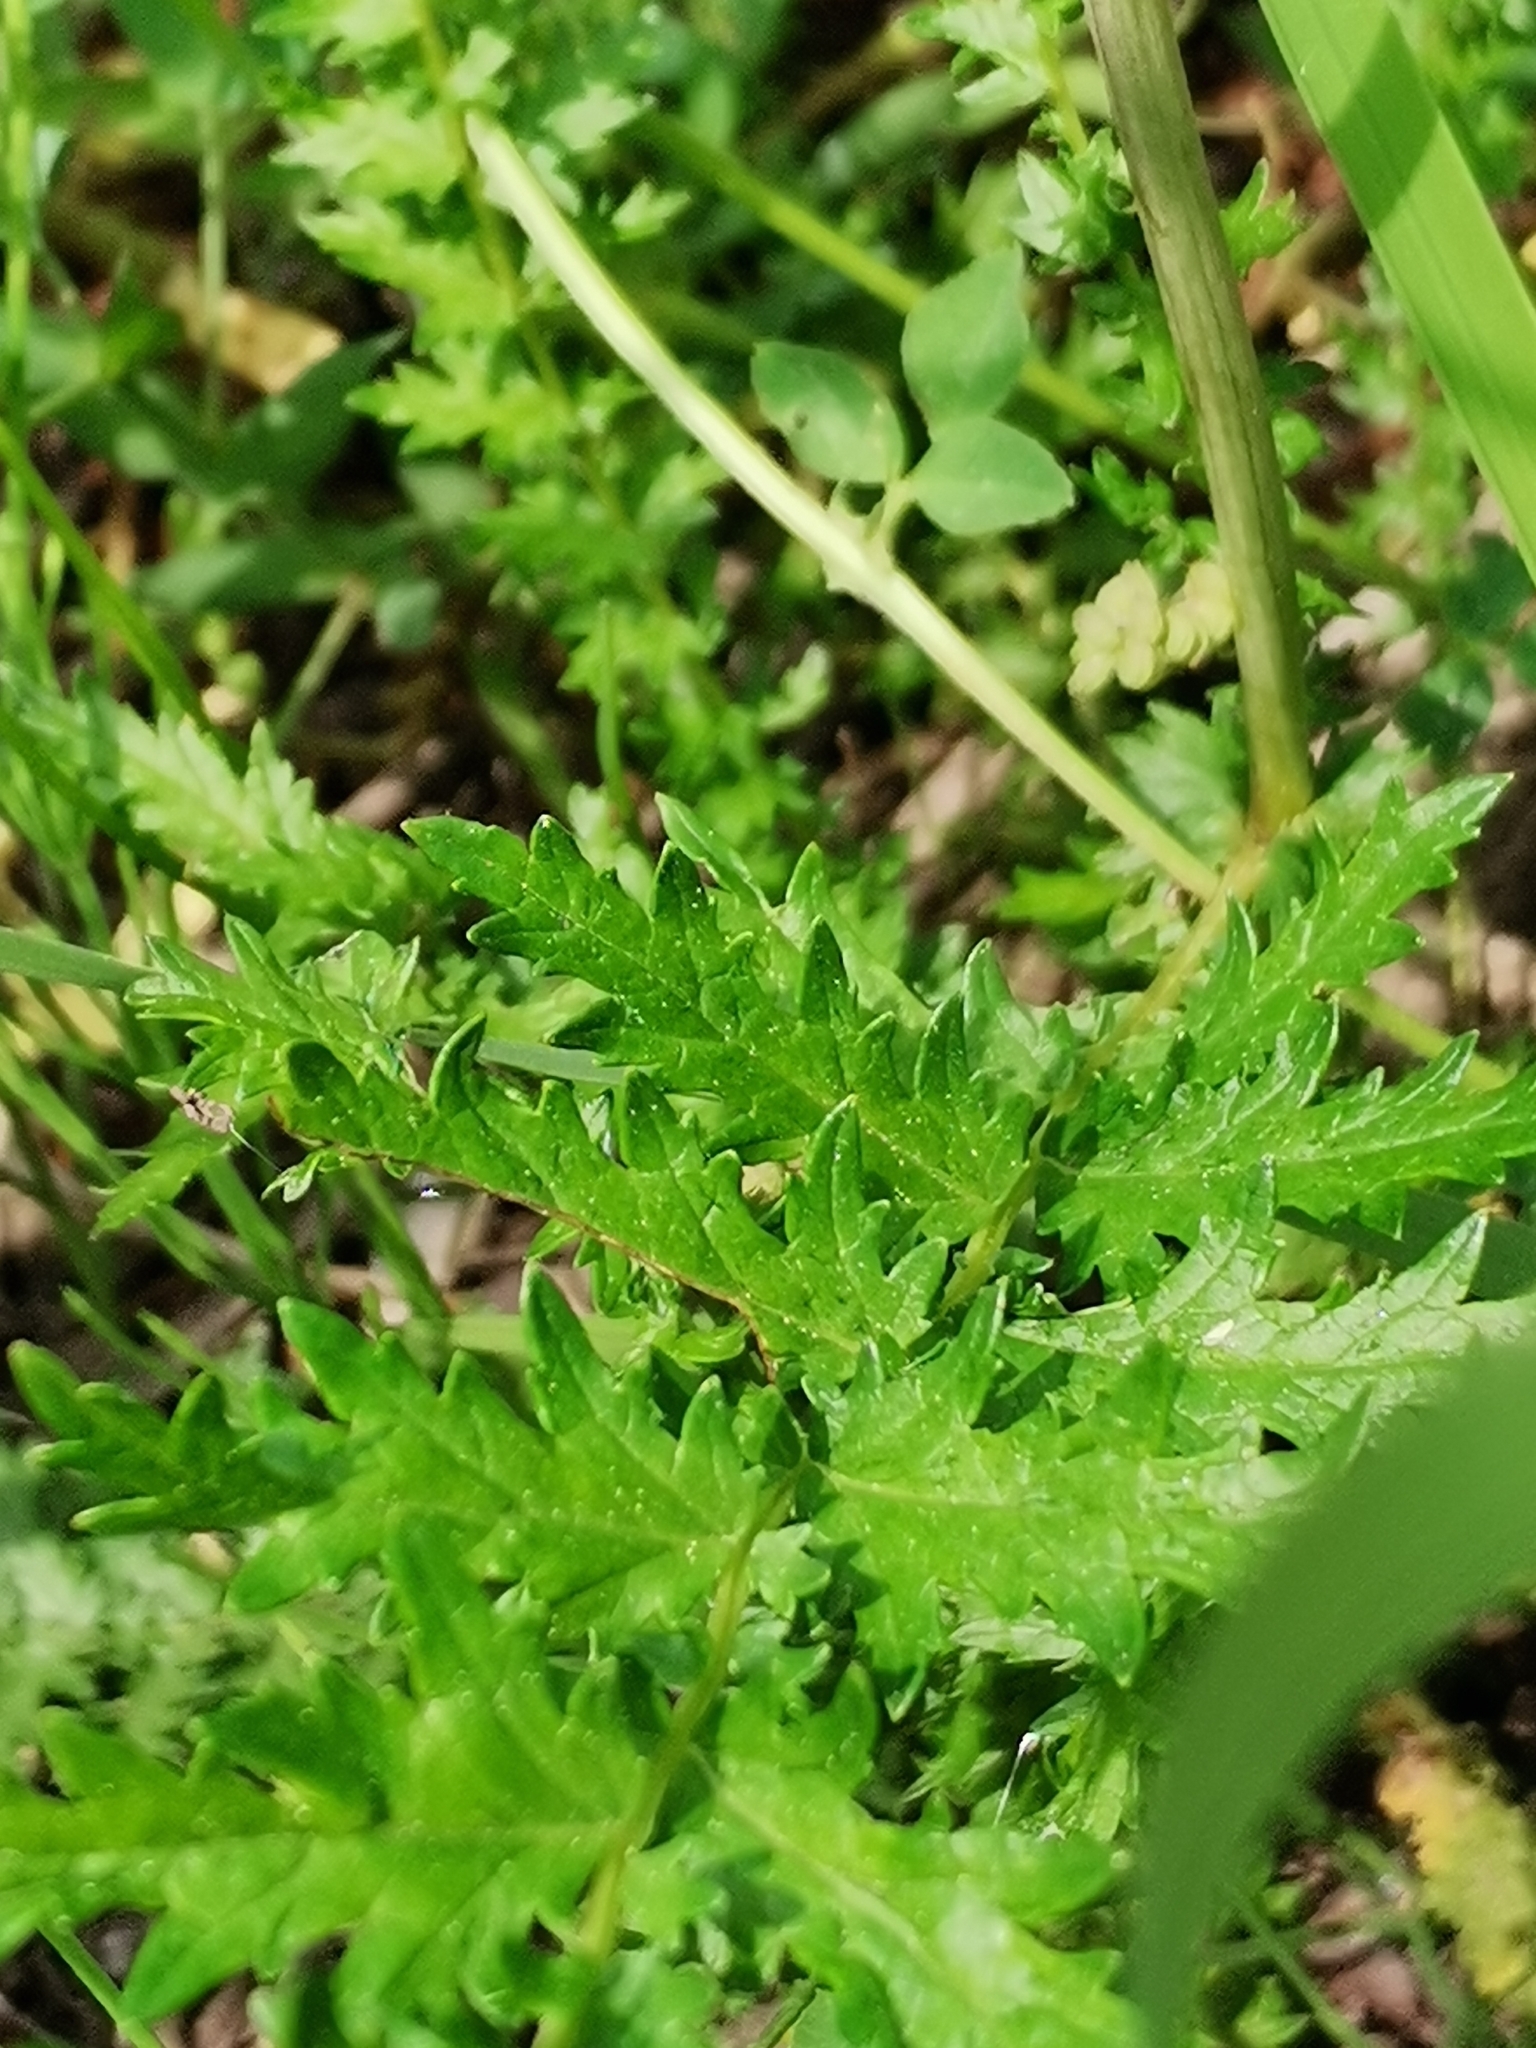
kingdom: Plantae
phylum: Tracheophyta
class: Magnoliopsida
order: Rosales
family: Rosaceae
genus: Filipendula
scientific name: Filipendula vulgaris
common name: Dropwort
